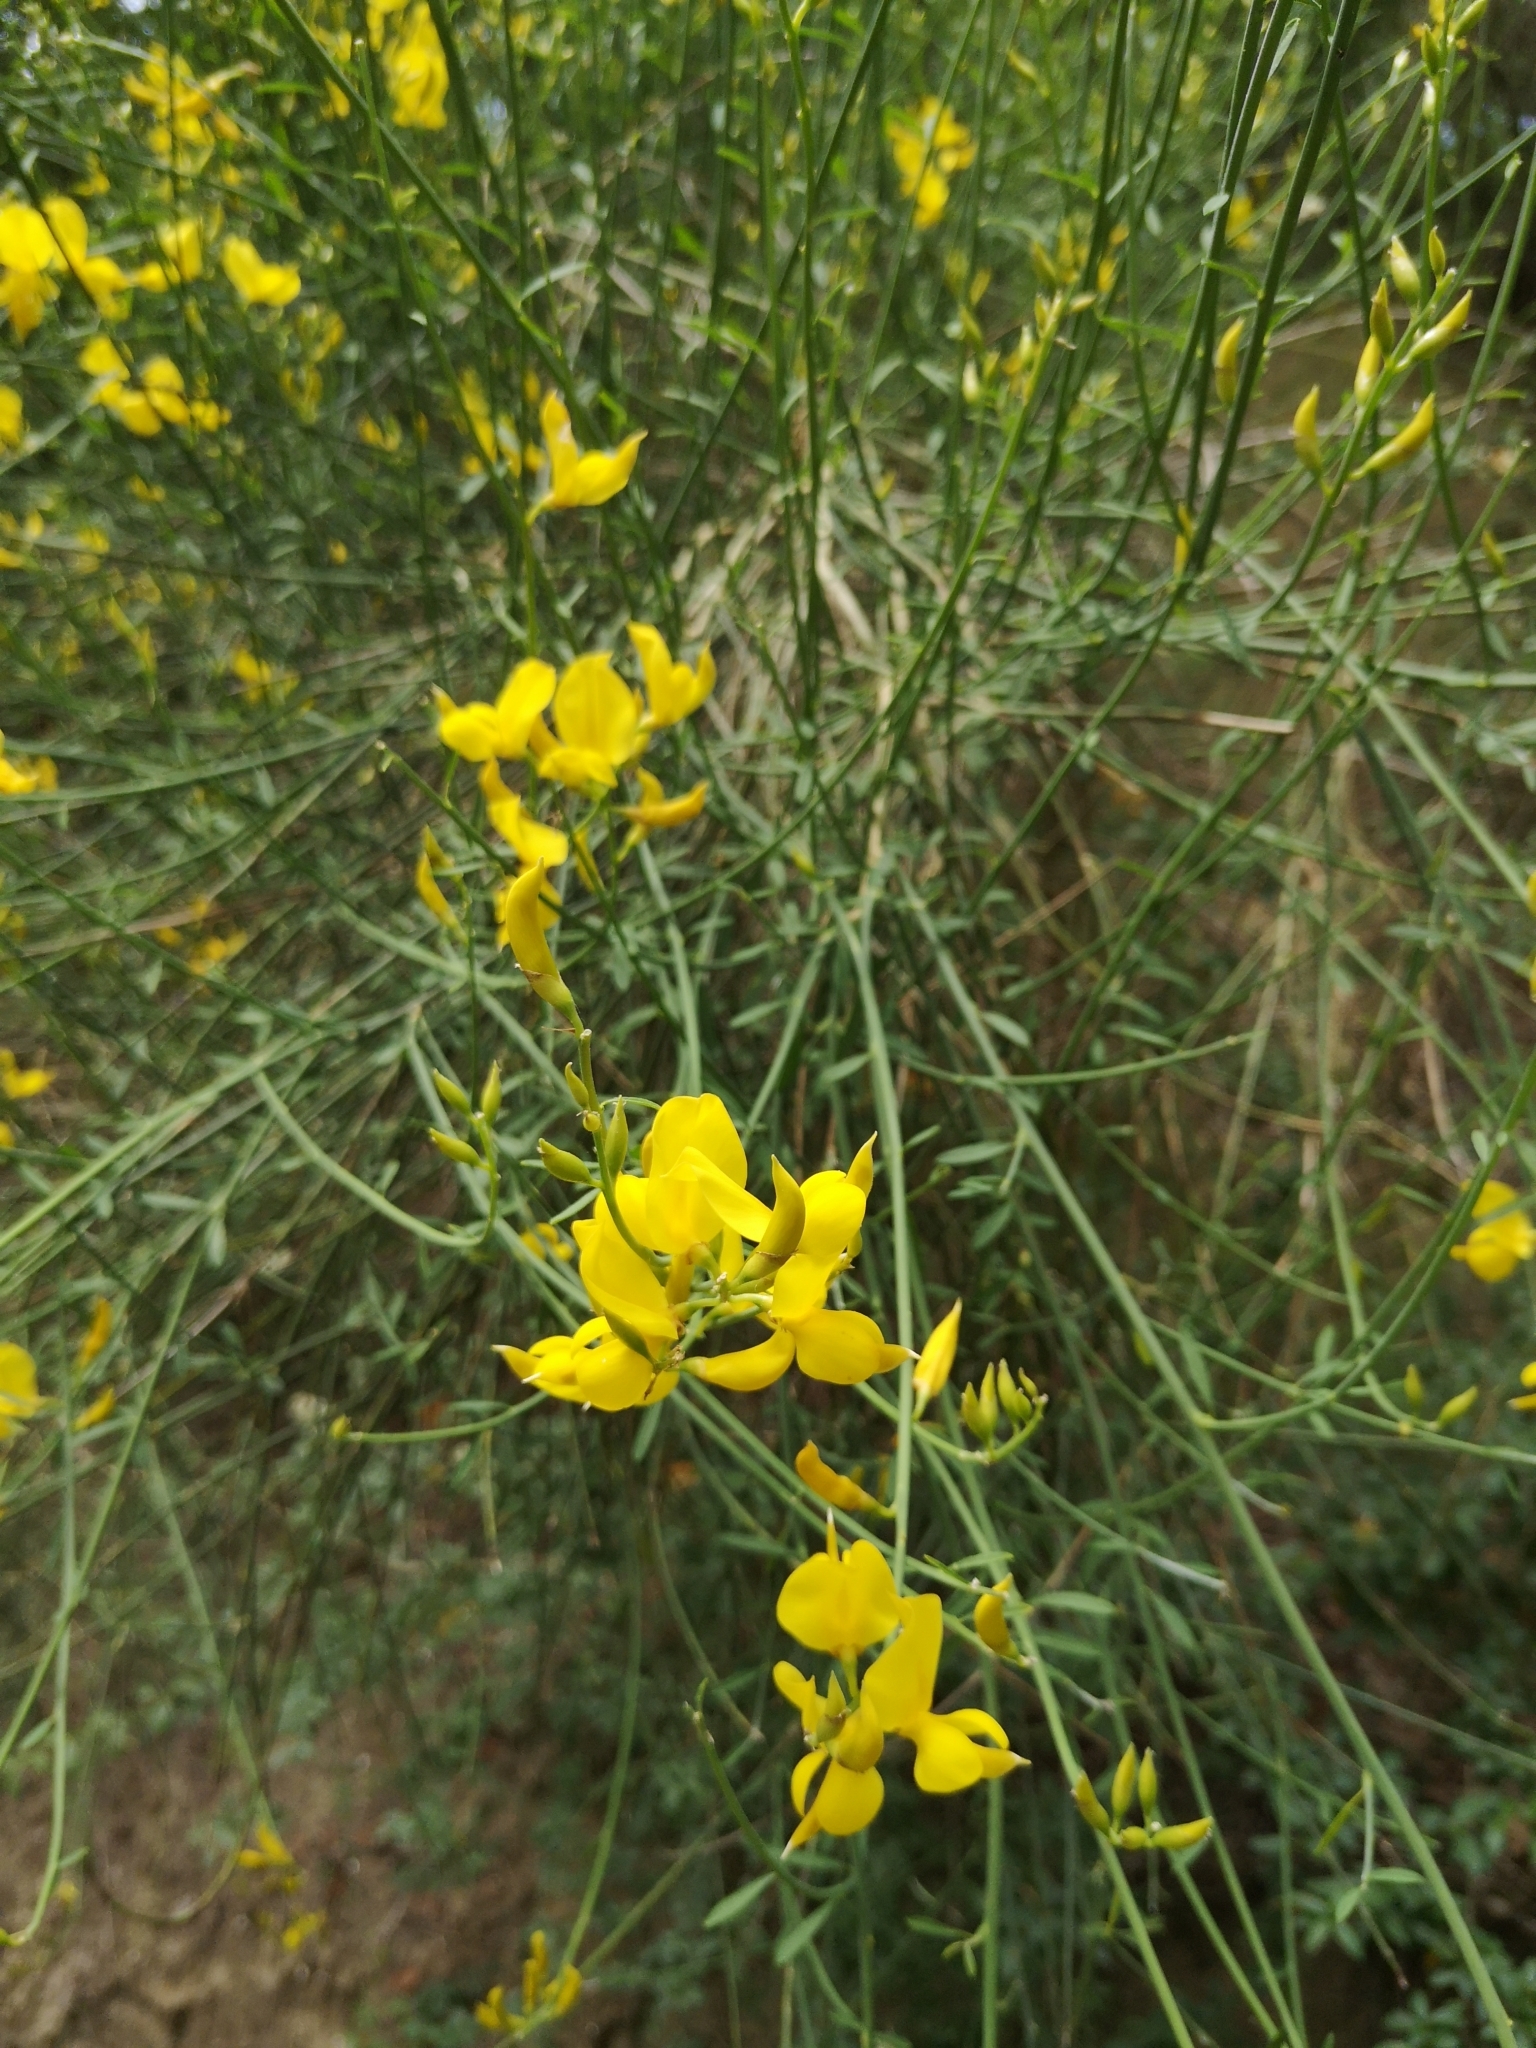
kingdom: Plantae
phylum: Tracheophyta
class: Magnoliopsida
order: Fabales
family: Fabaceae
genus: Spartium
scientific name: Spartium junceum
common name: Spanish broom
